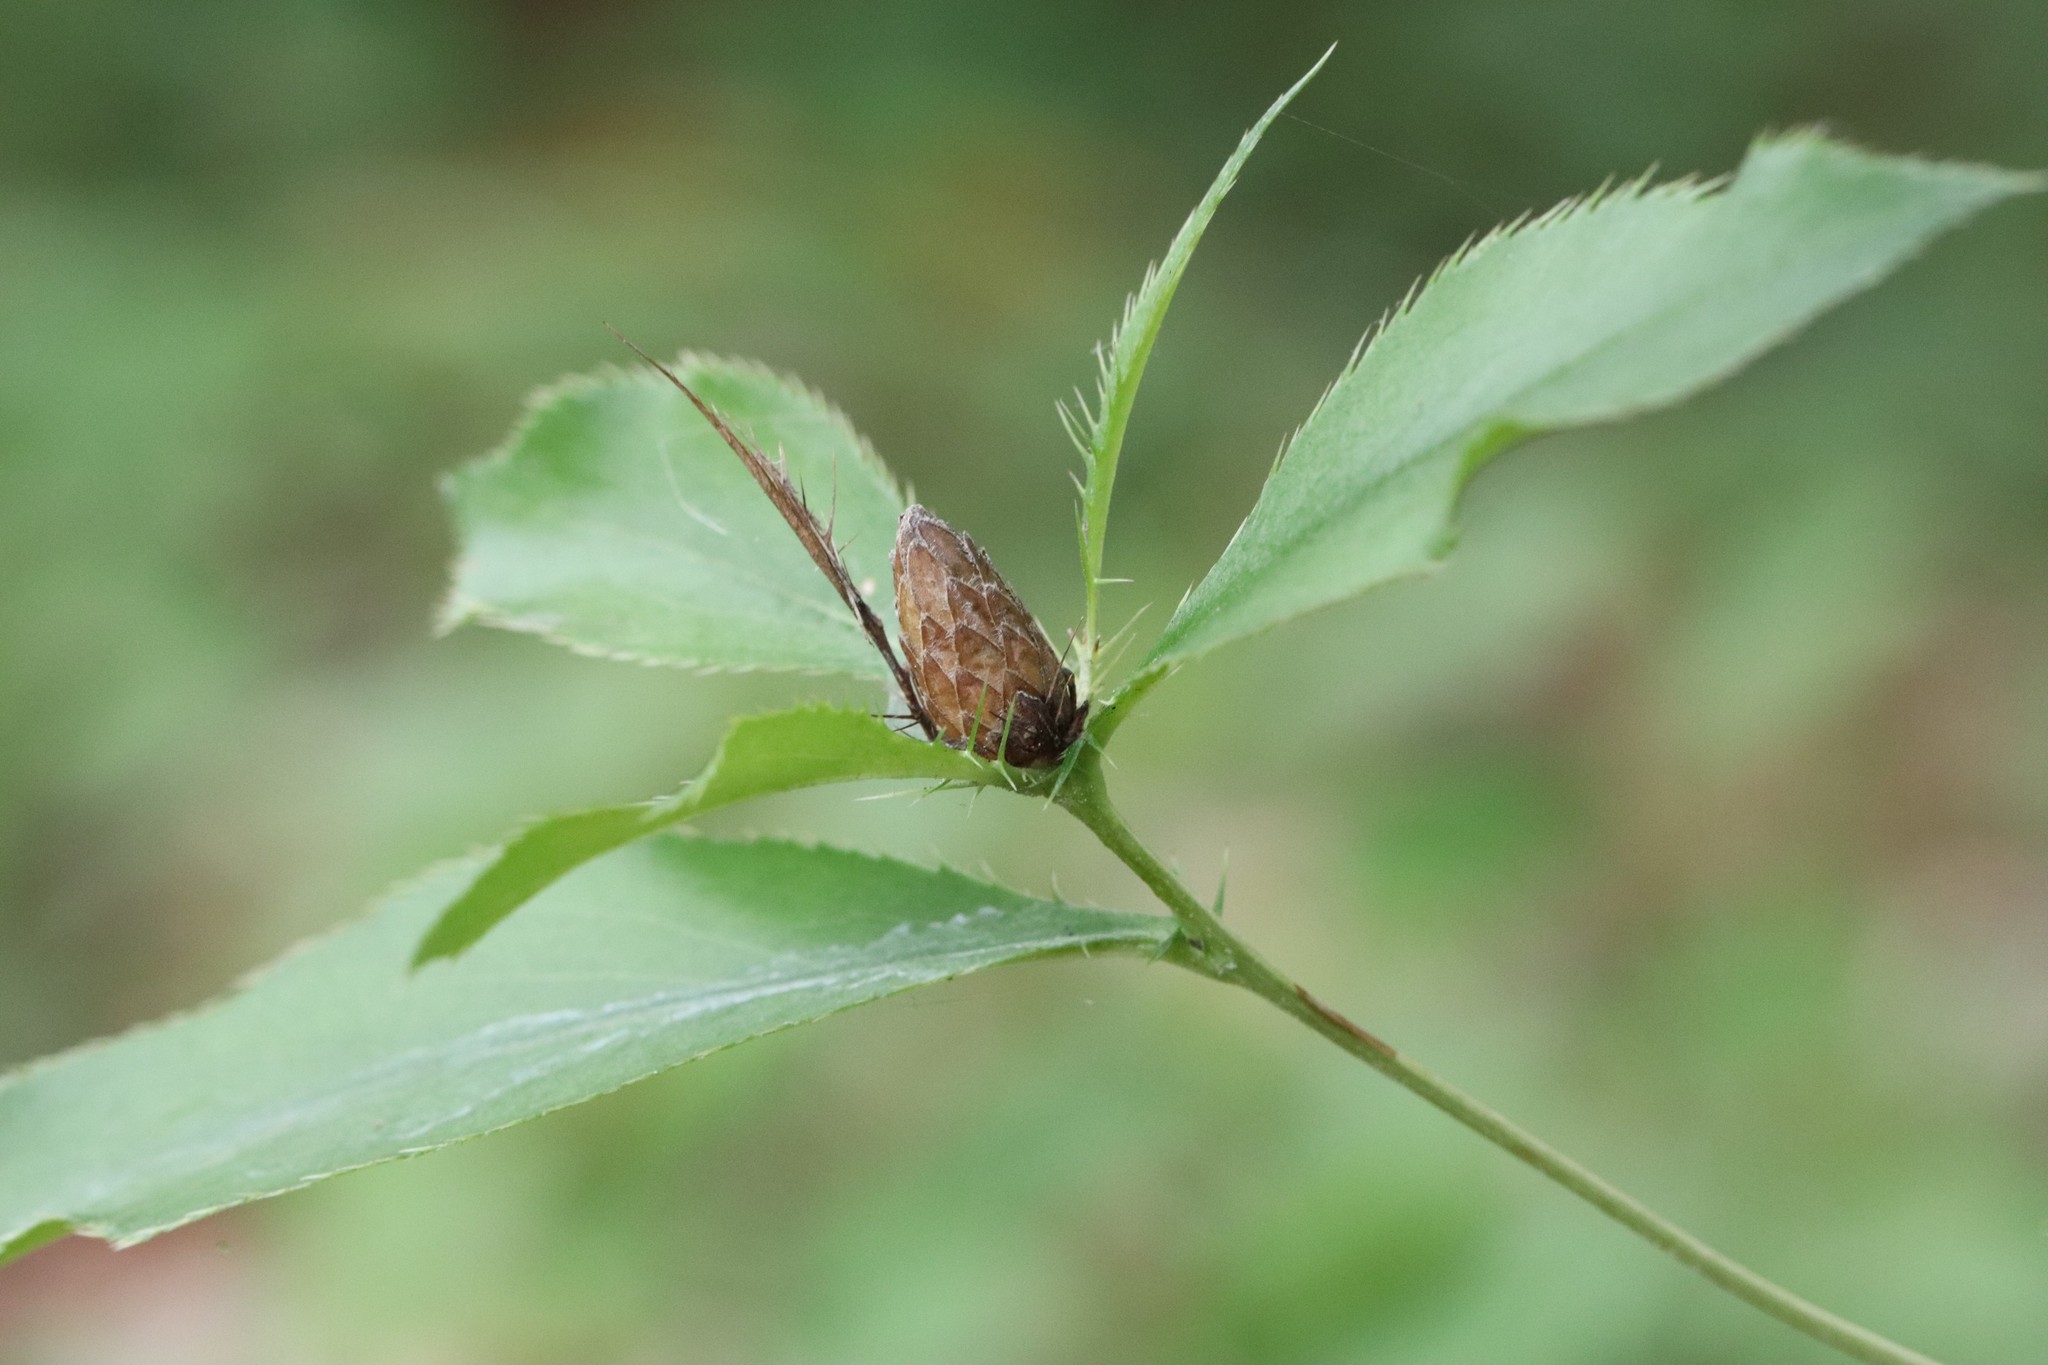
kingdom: Plantae
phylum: Tracheophyta
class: Magnoliopsida
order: Asterales
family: Asteraceae
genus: Atractylodes
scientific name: Atractylodes lancea
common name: Southern tsangshu
